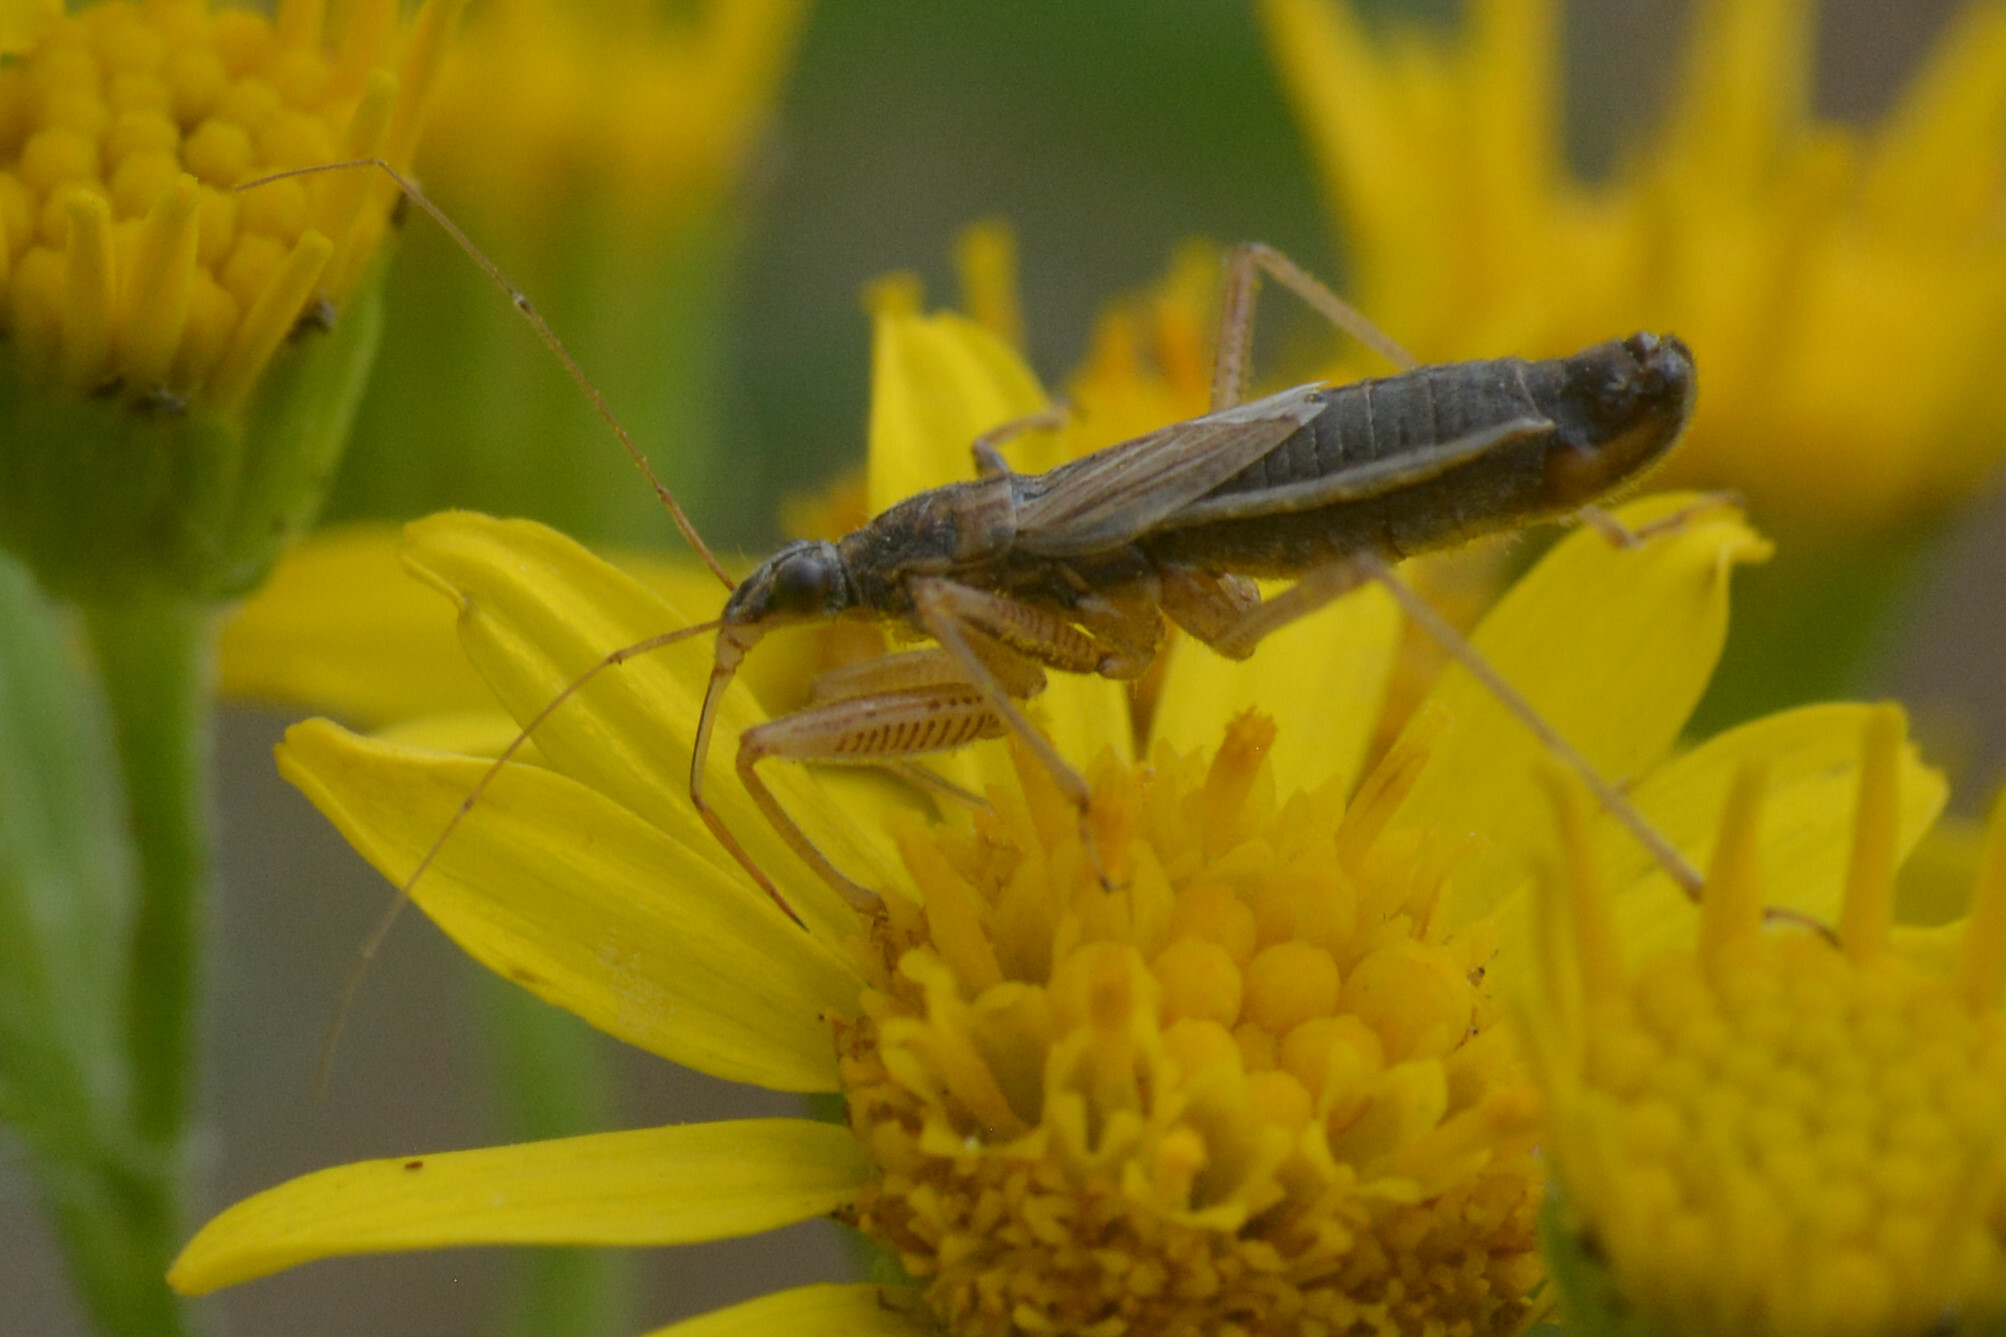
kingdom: Animalia
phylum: Arthropoda
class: Insecta
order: Hemiptera
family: Nabidae
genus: Nabis
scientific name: Nabis flavomarginatus
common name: Broad damselbug
